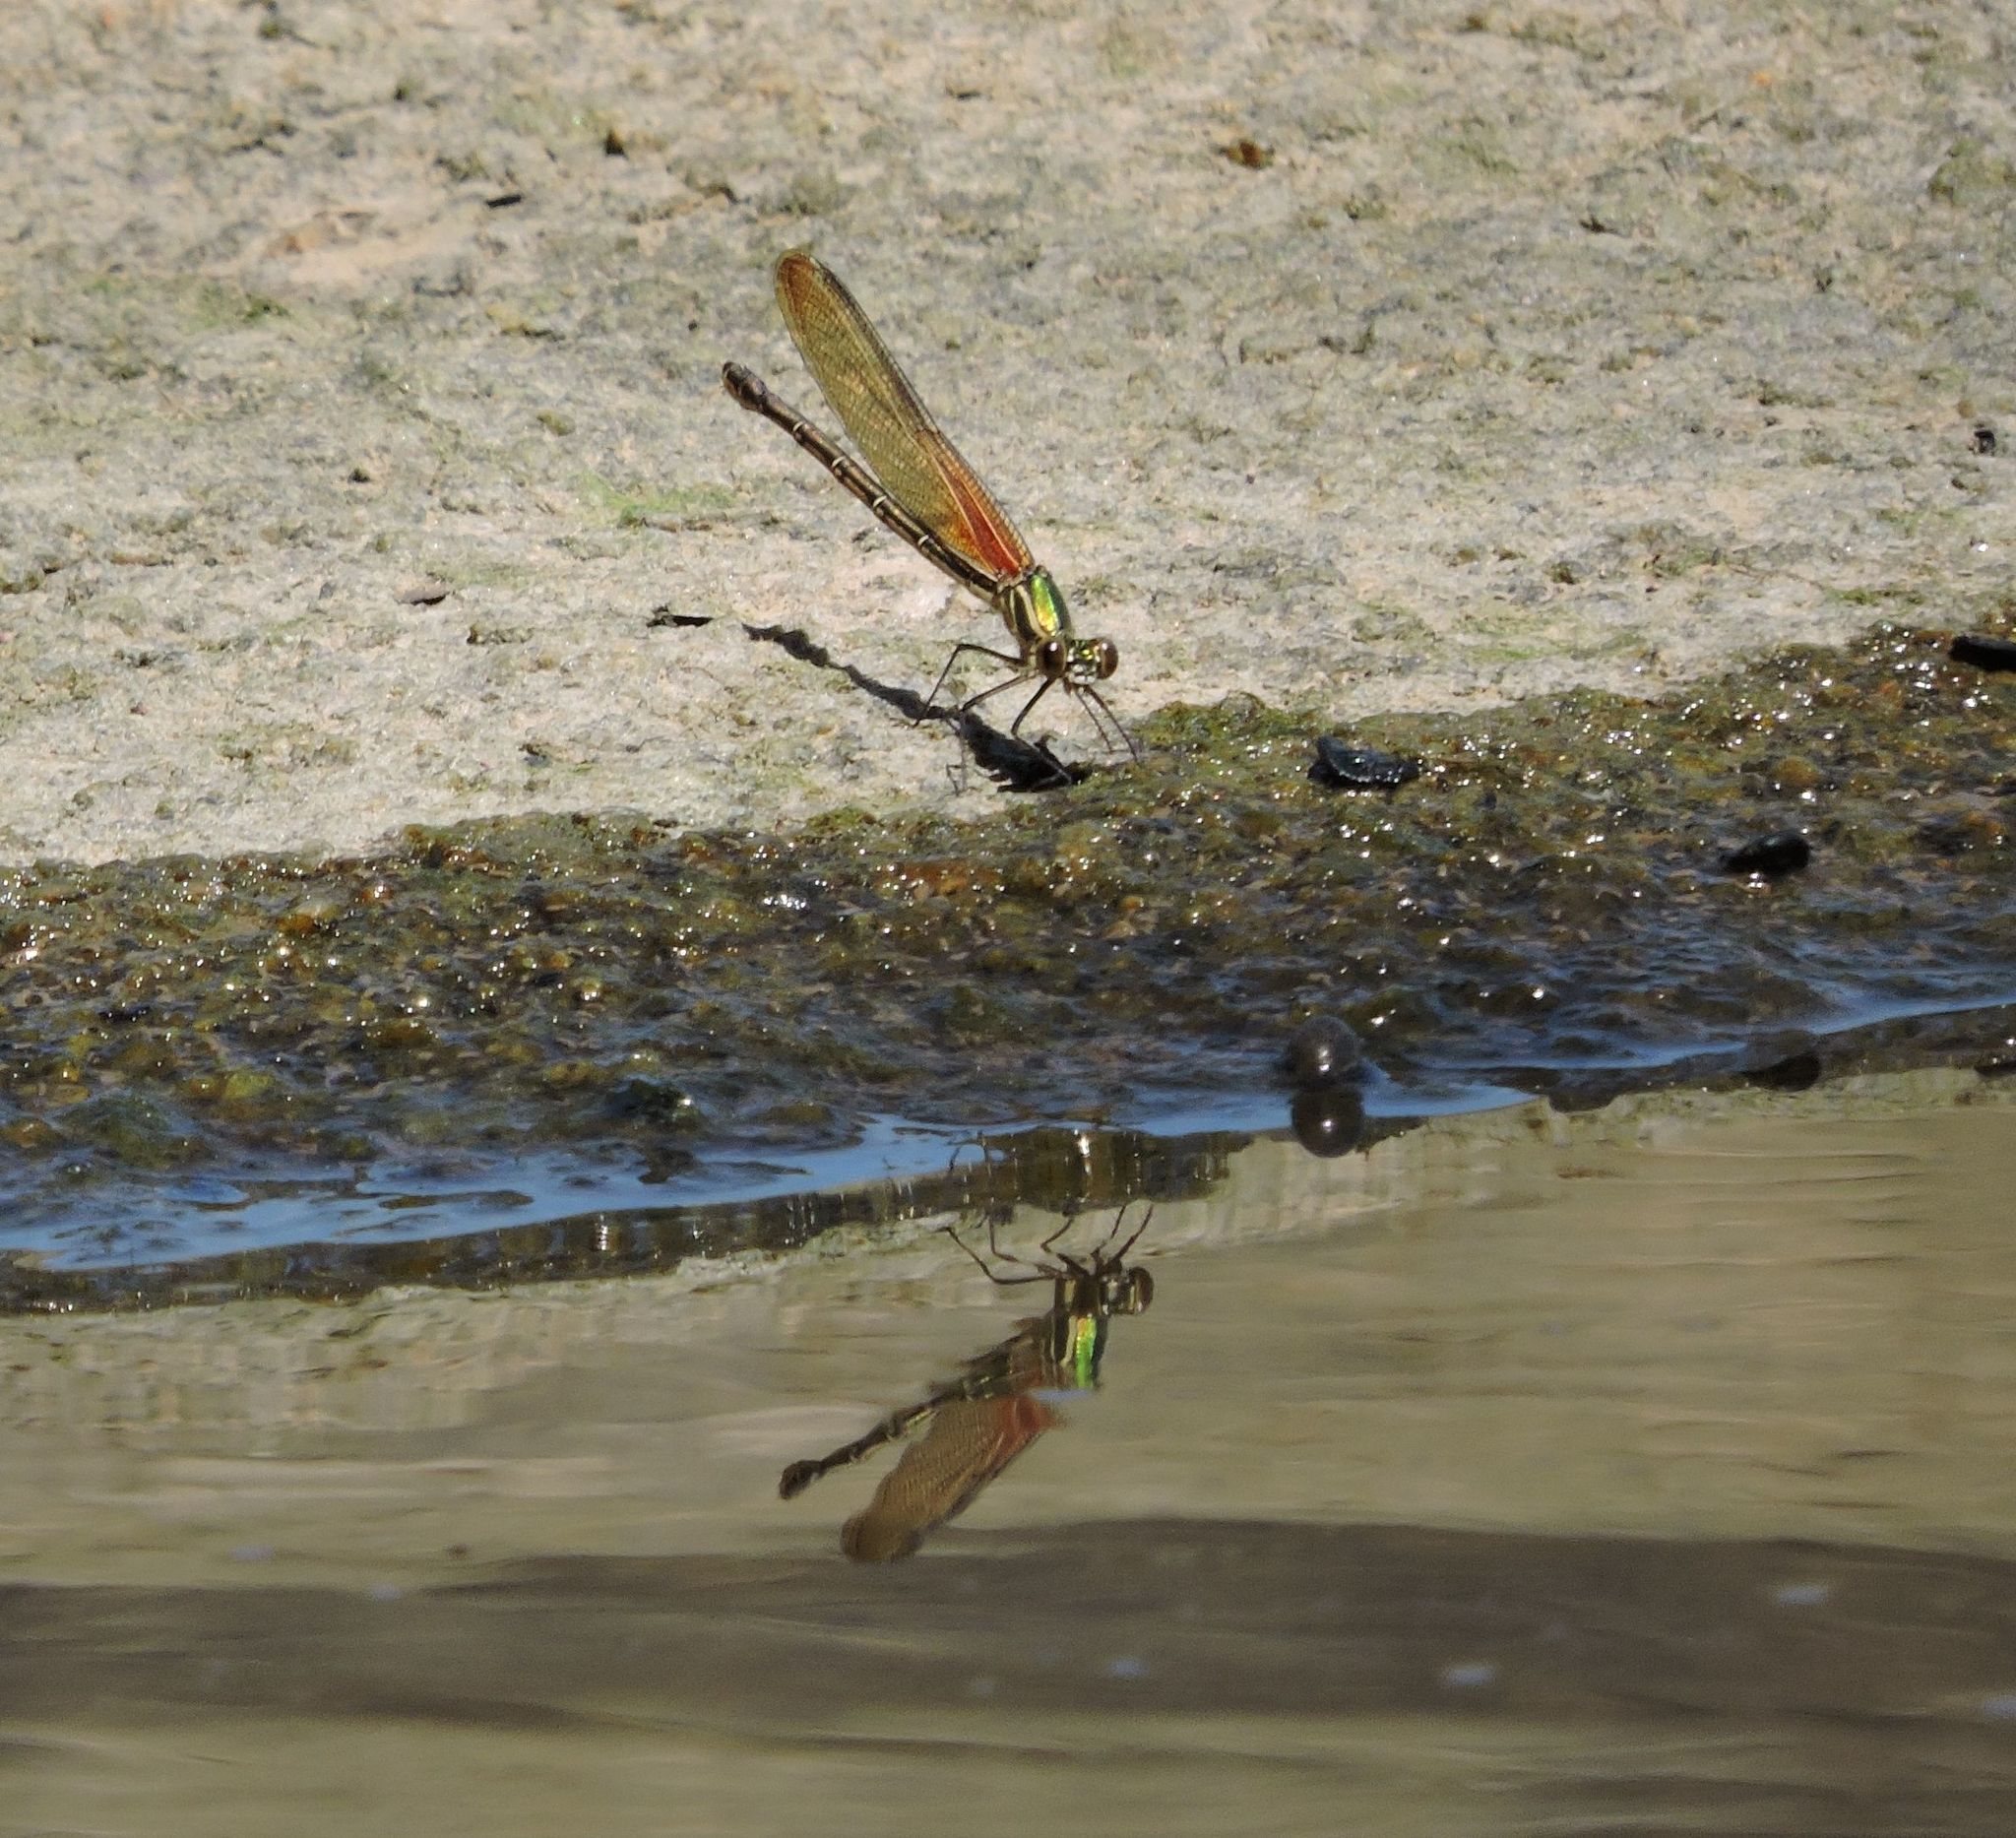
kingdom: Animalia
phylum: Arthropoda
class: Insecta
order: Odonata
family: Calopterygidae
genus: Hetaerina
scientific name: Hetaerina americana
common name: American rubyspot
